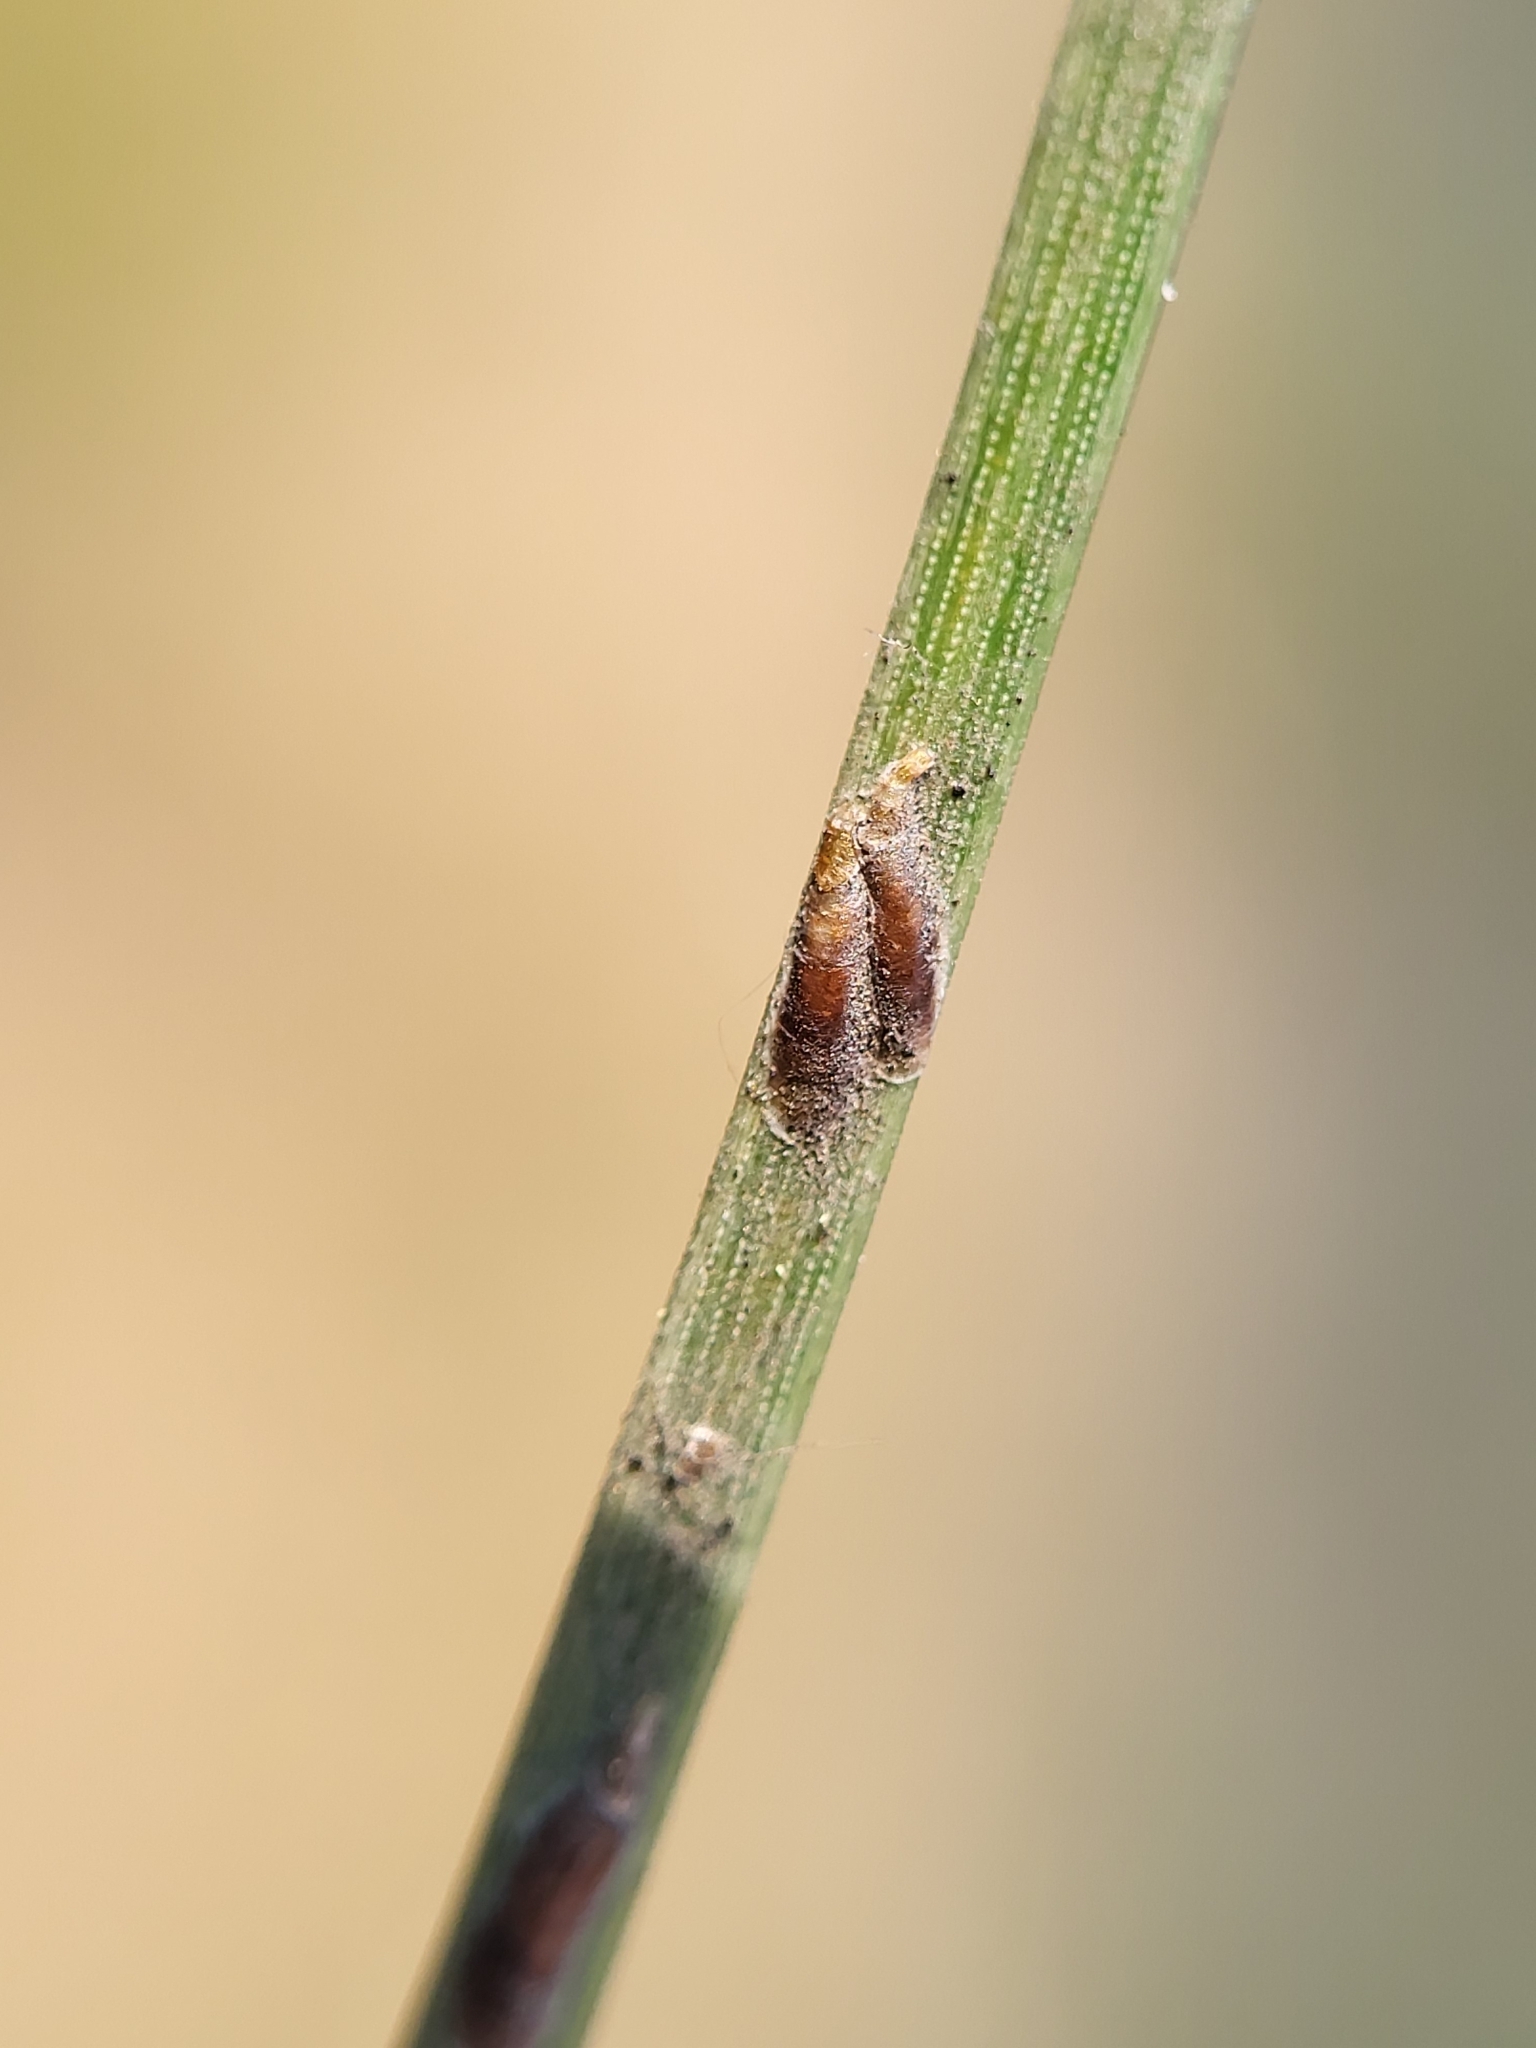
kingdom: Animalia
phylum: Arthropoda
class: Insecta
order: Hemiptera
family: Diaspididae
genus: Lepidosaphes
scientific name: Lepidosaphes pini
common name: Pine oystershell scale
